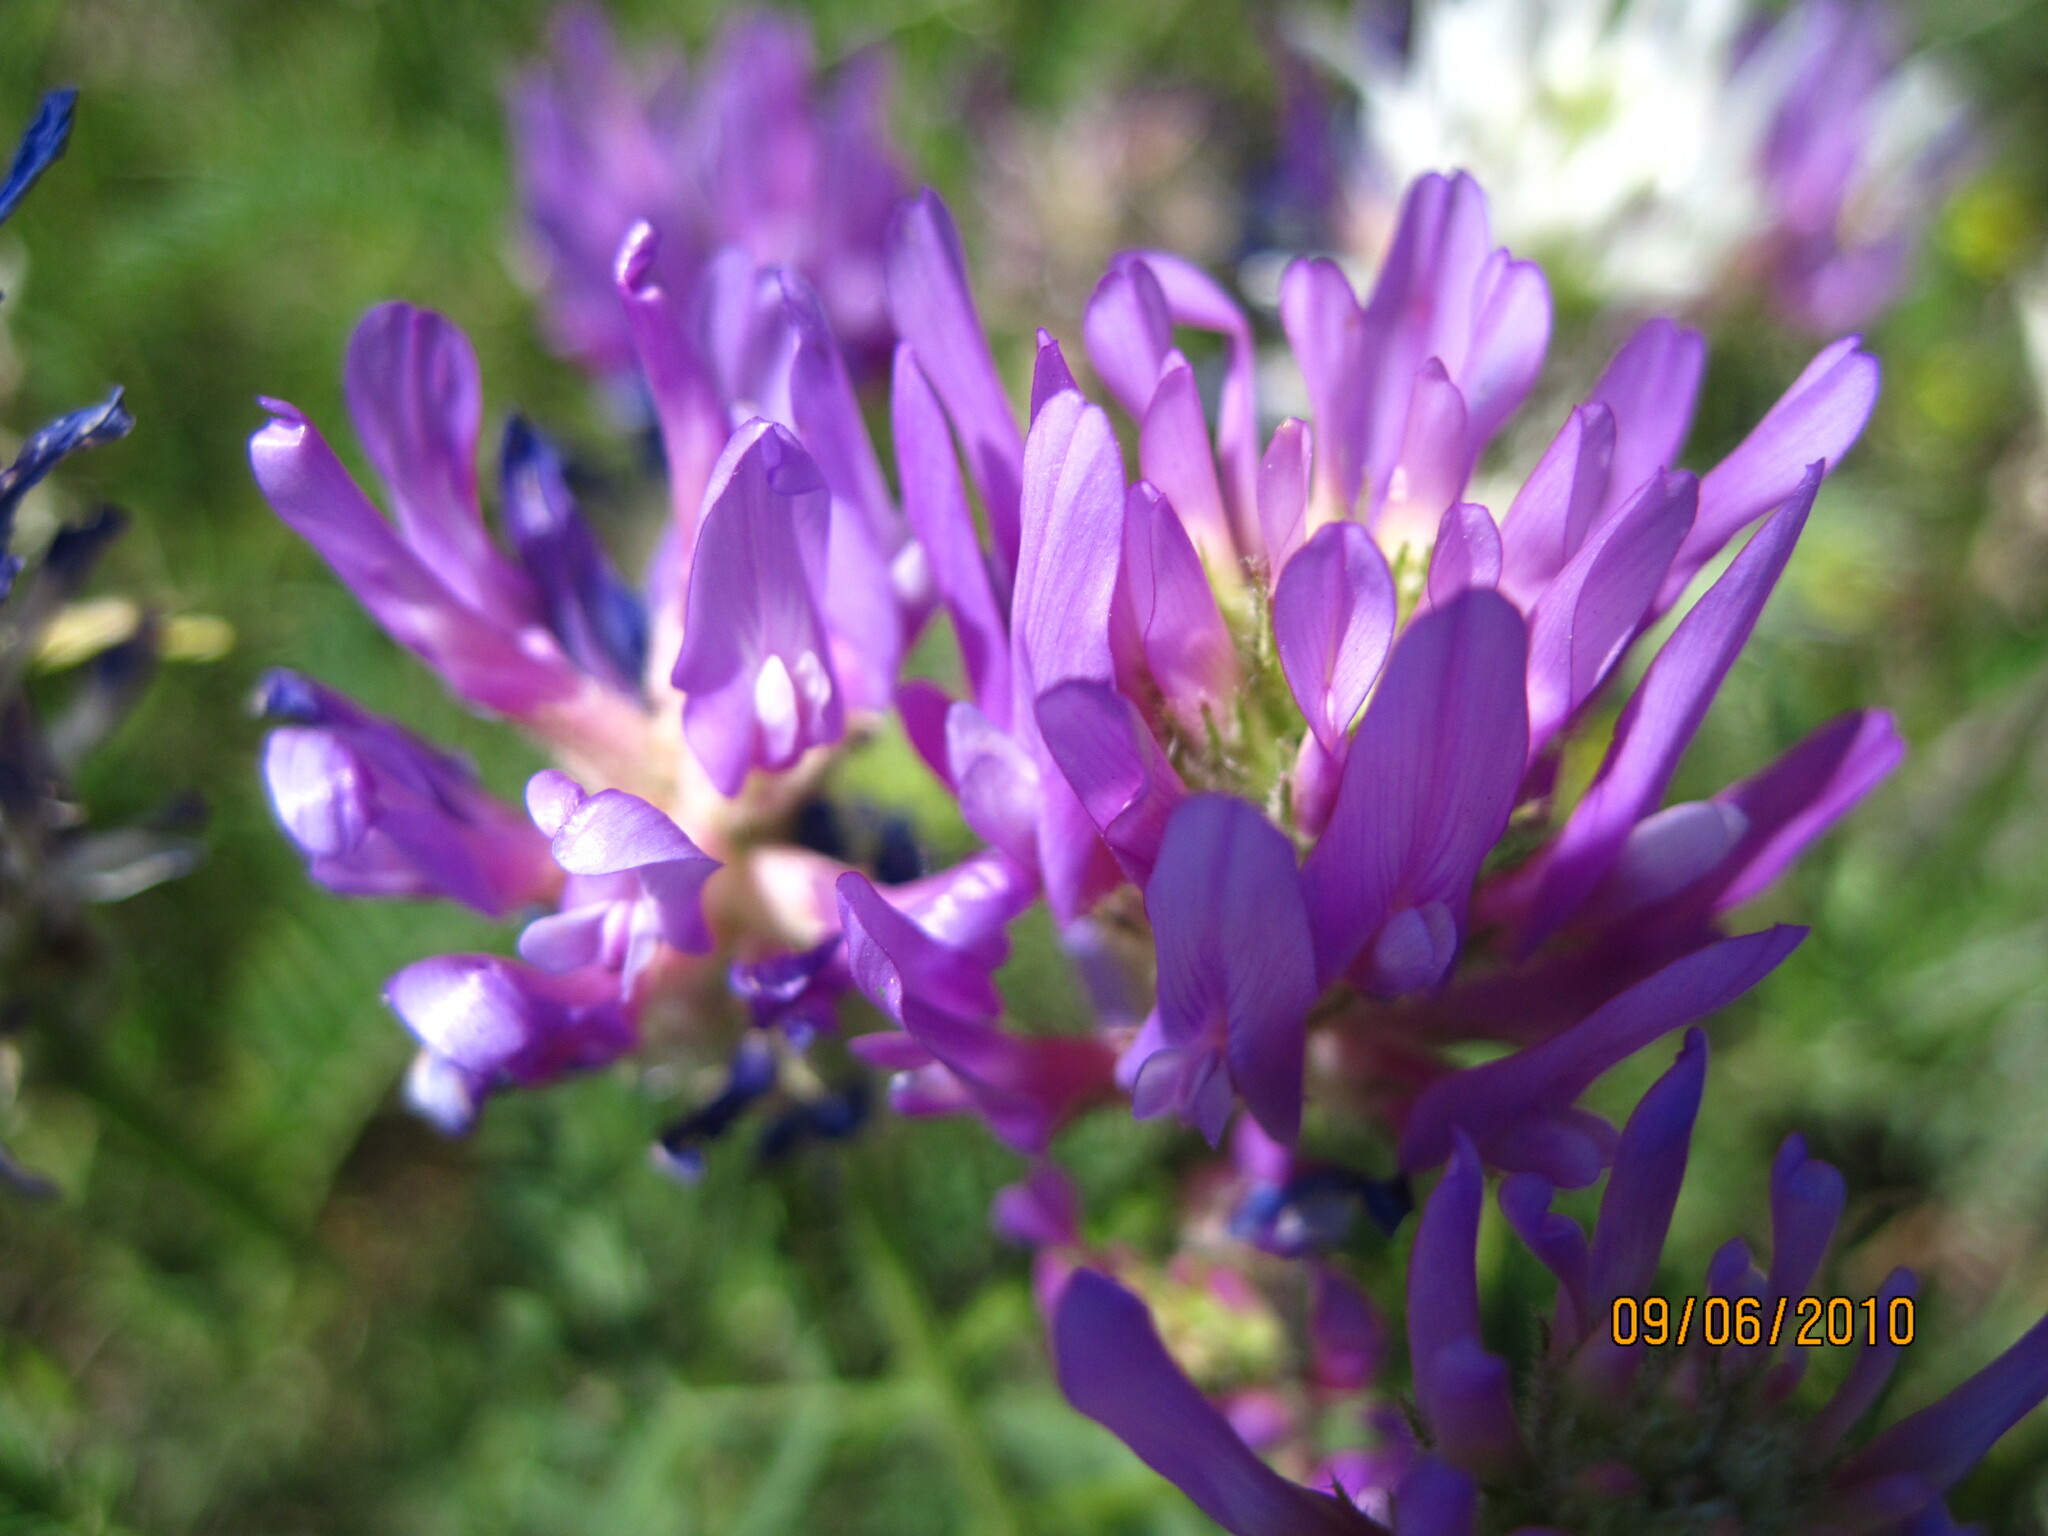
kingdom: Plantae
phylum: Tracheophyta
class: Magnoliopsida
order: Fabales
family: Fabaceae
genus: Astragalus
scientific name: Astragalus onobrychis
